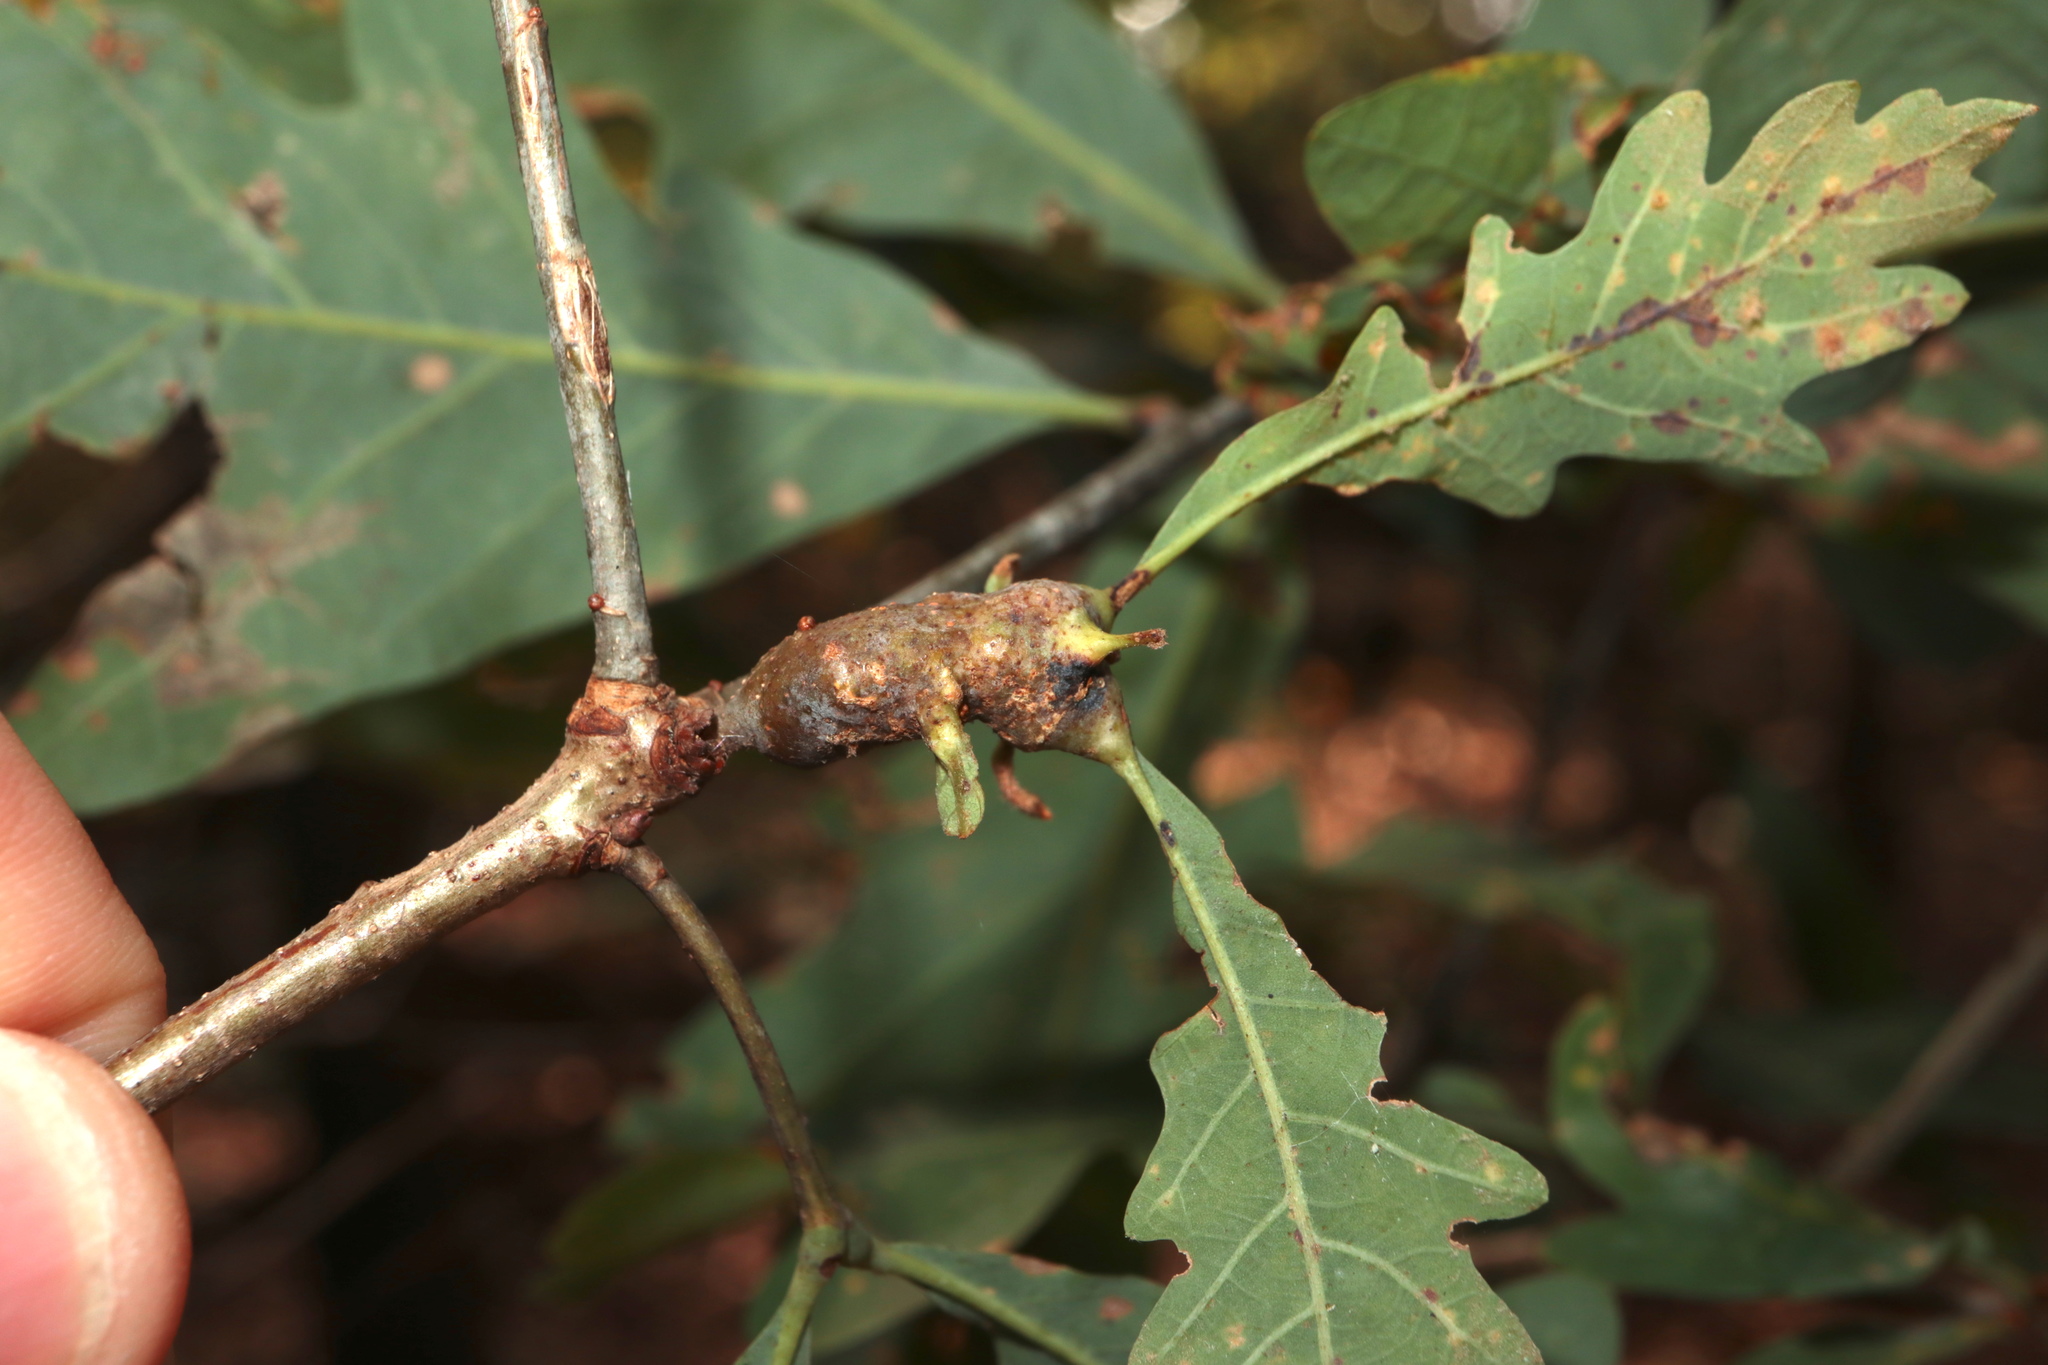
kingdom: Animalia
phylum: Arthropoda
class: Insecta
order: Hymenoptera
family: Cynipidae
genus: Neuroterus
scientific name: Neuroterus quercusbaccarum
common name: Common spangle gall
